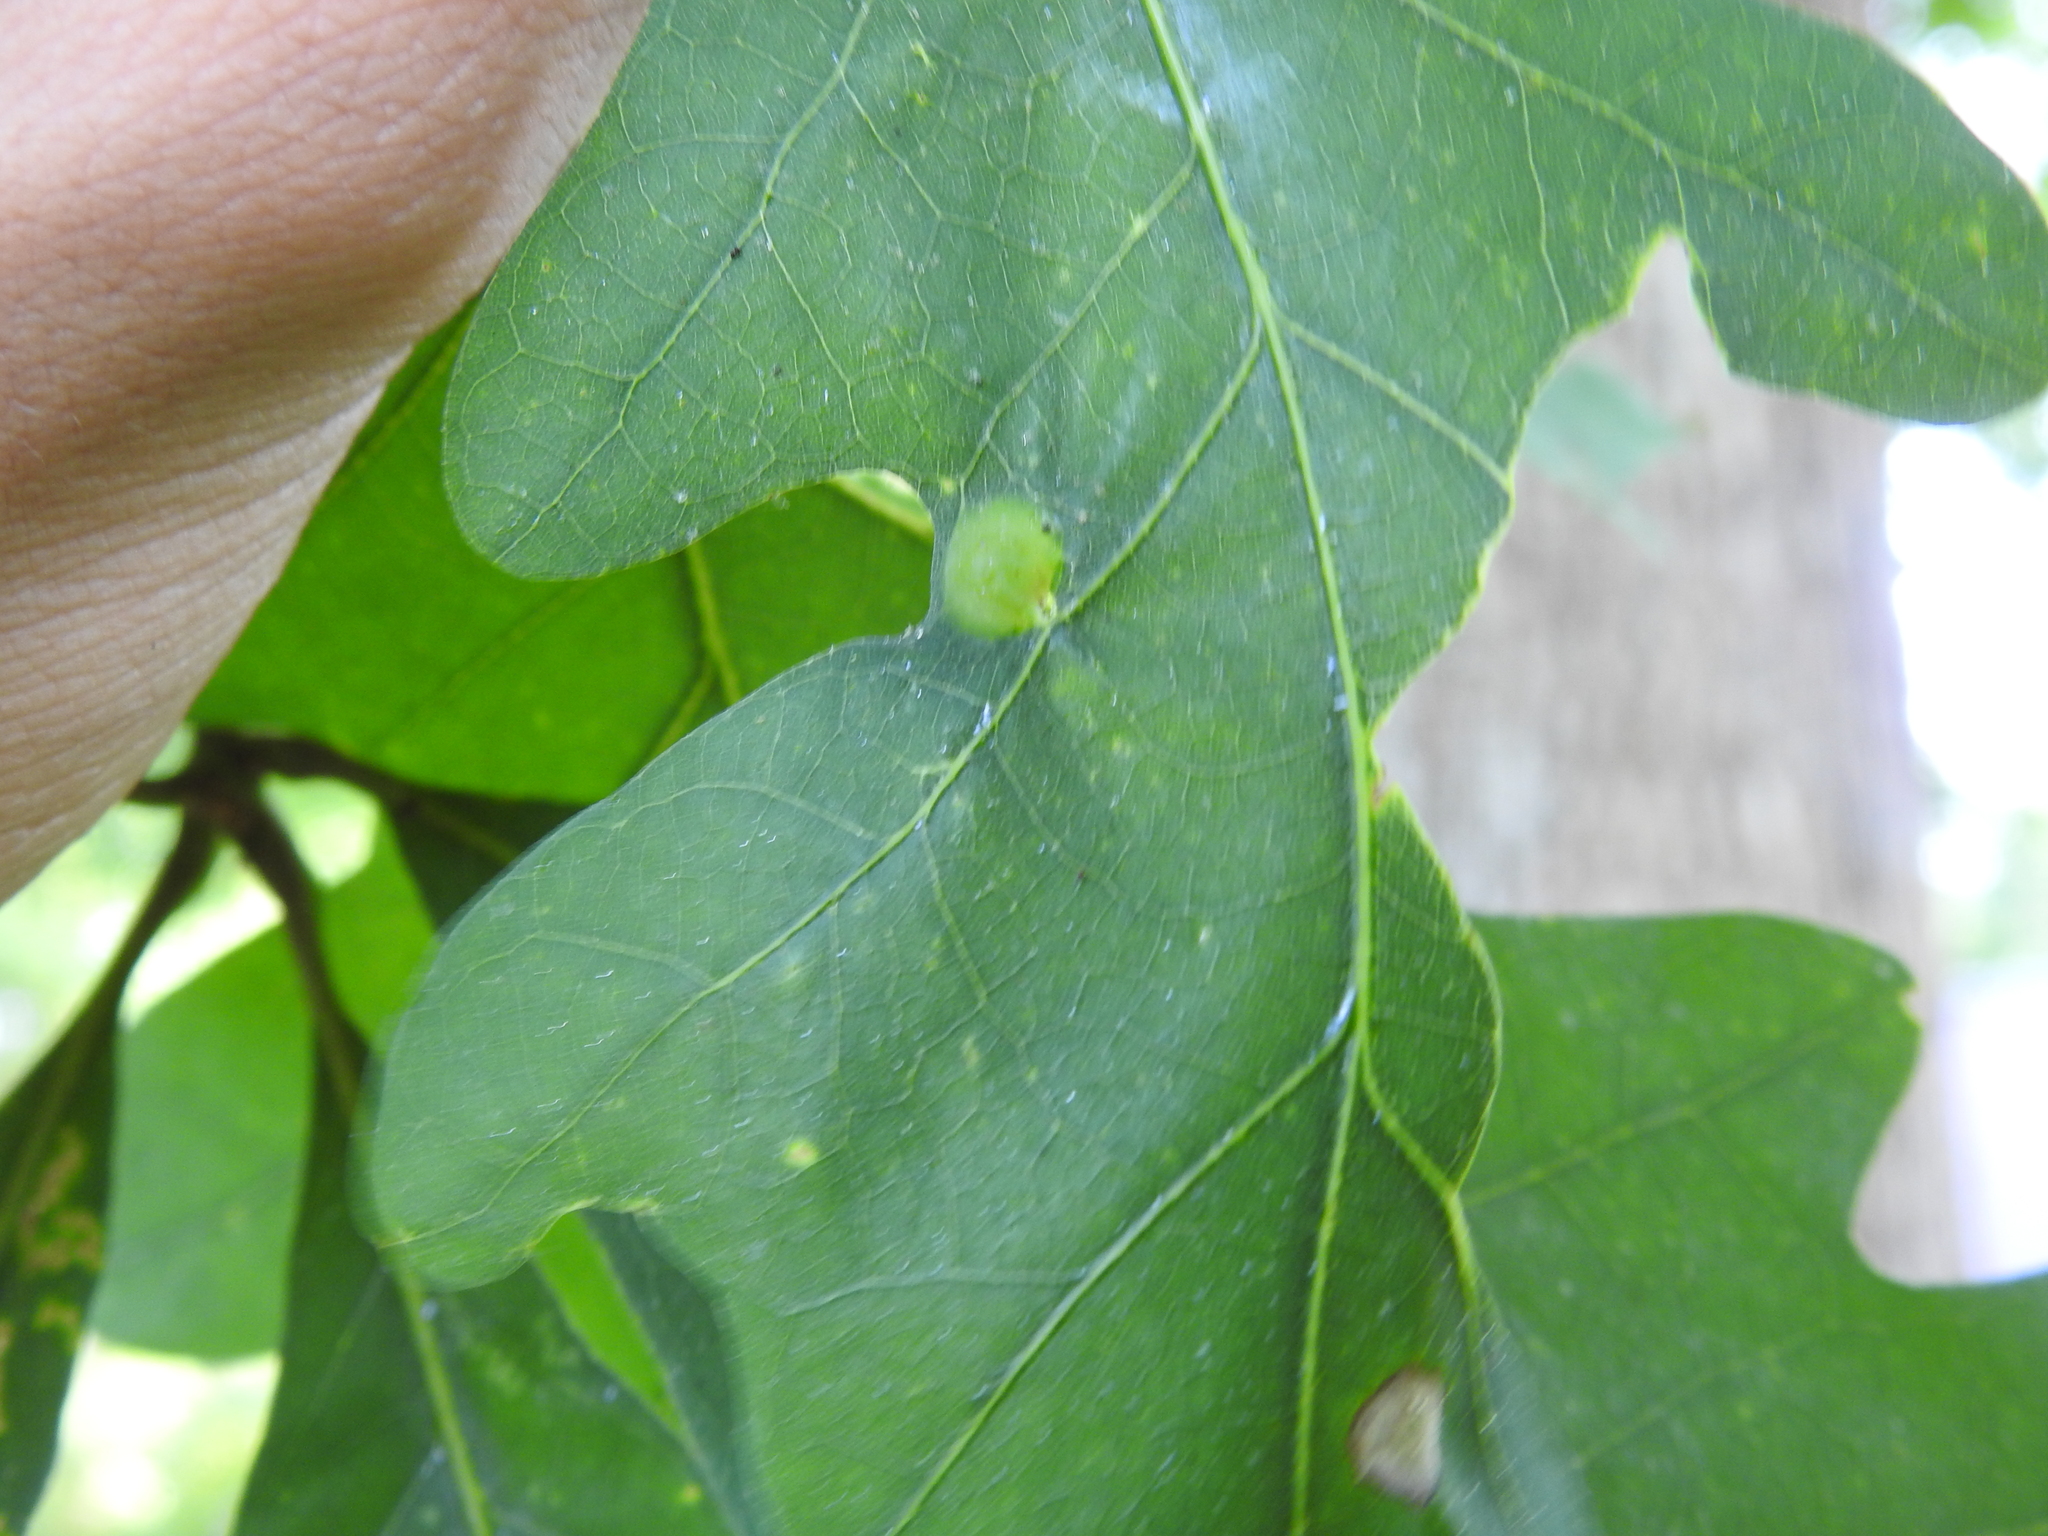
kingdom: Animalia
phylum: Arthropoda
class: Insecta
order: Hymenoptera
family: Cynipidae
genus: Callirhytis
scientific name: Callirhytis
